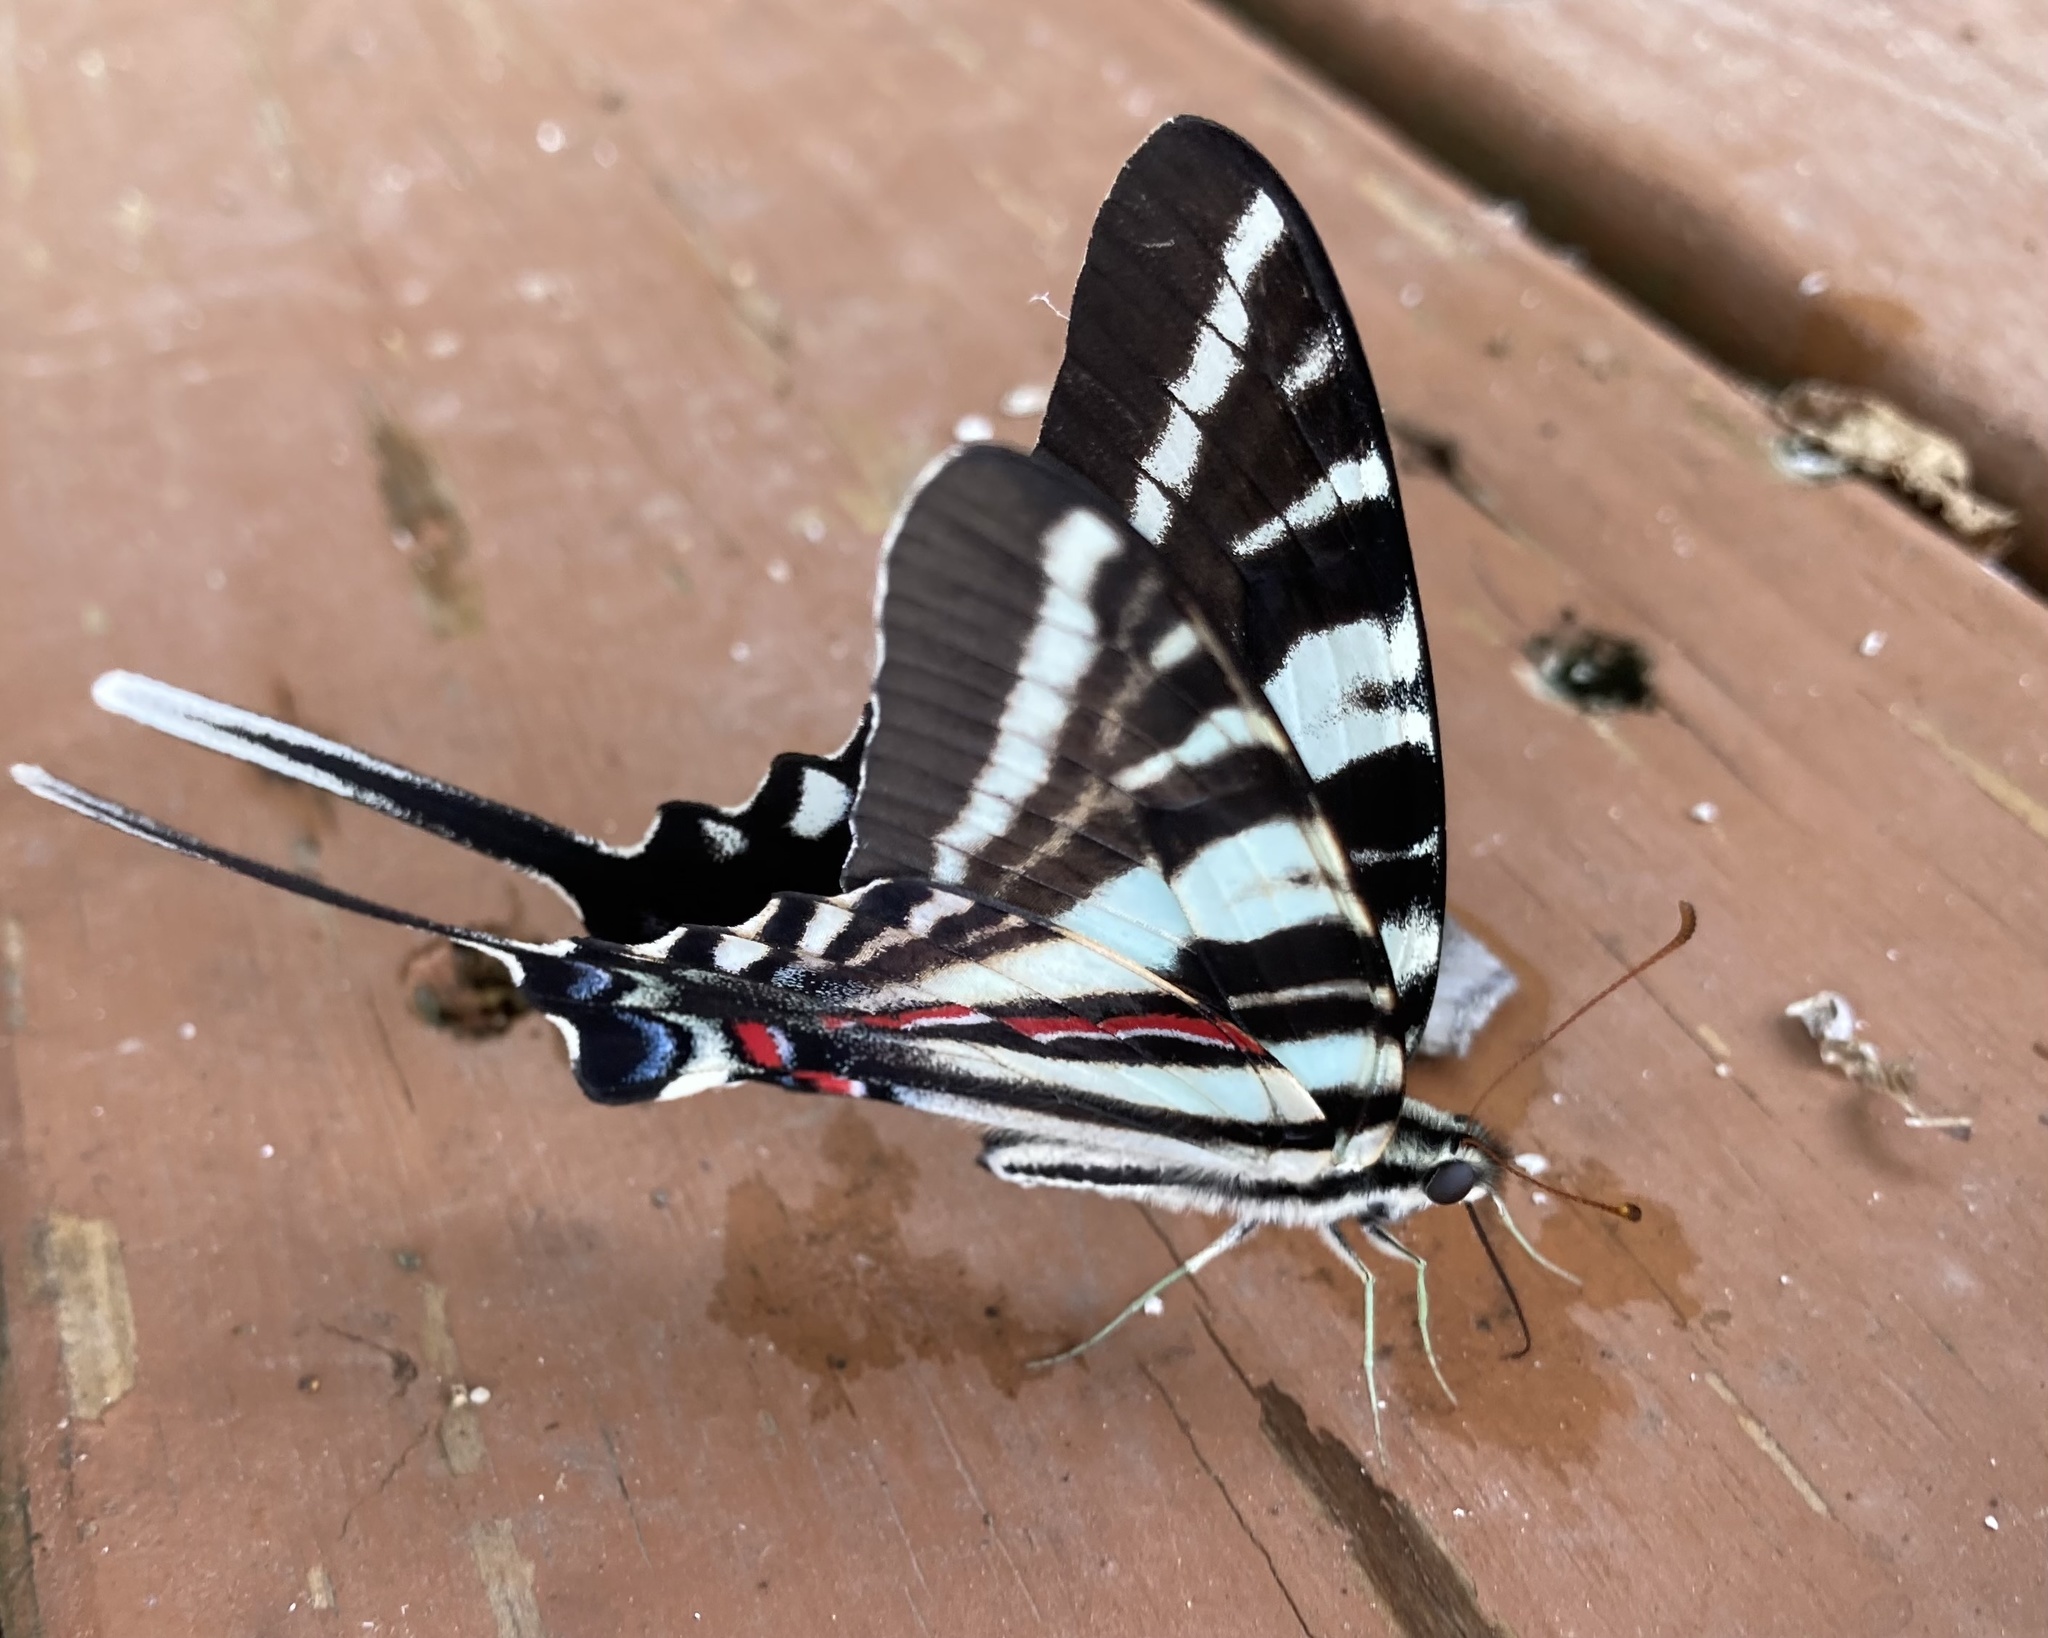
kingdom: Animalia
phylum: Arthropoda
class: Insecta
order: Lepidoptera
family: Papilionidae
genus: Protographium
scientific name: Protographium marcellus
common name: Zebra swallowtail
